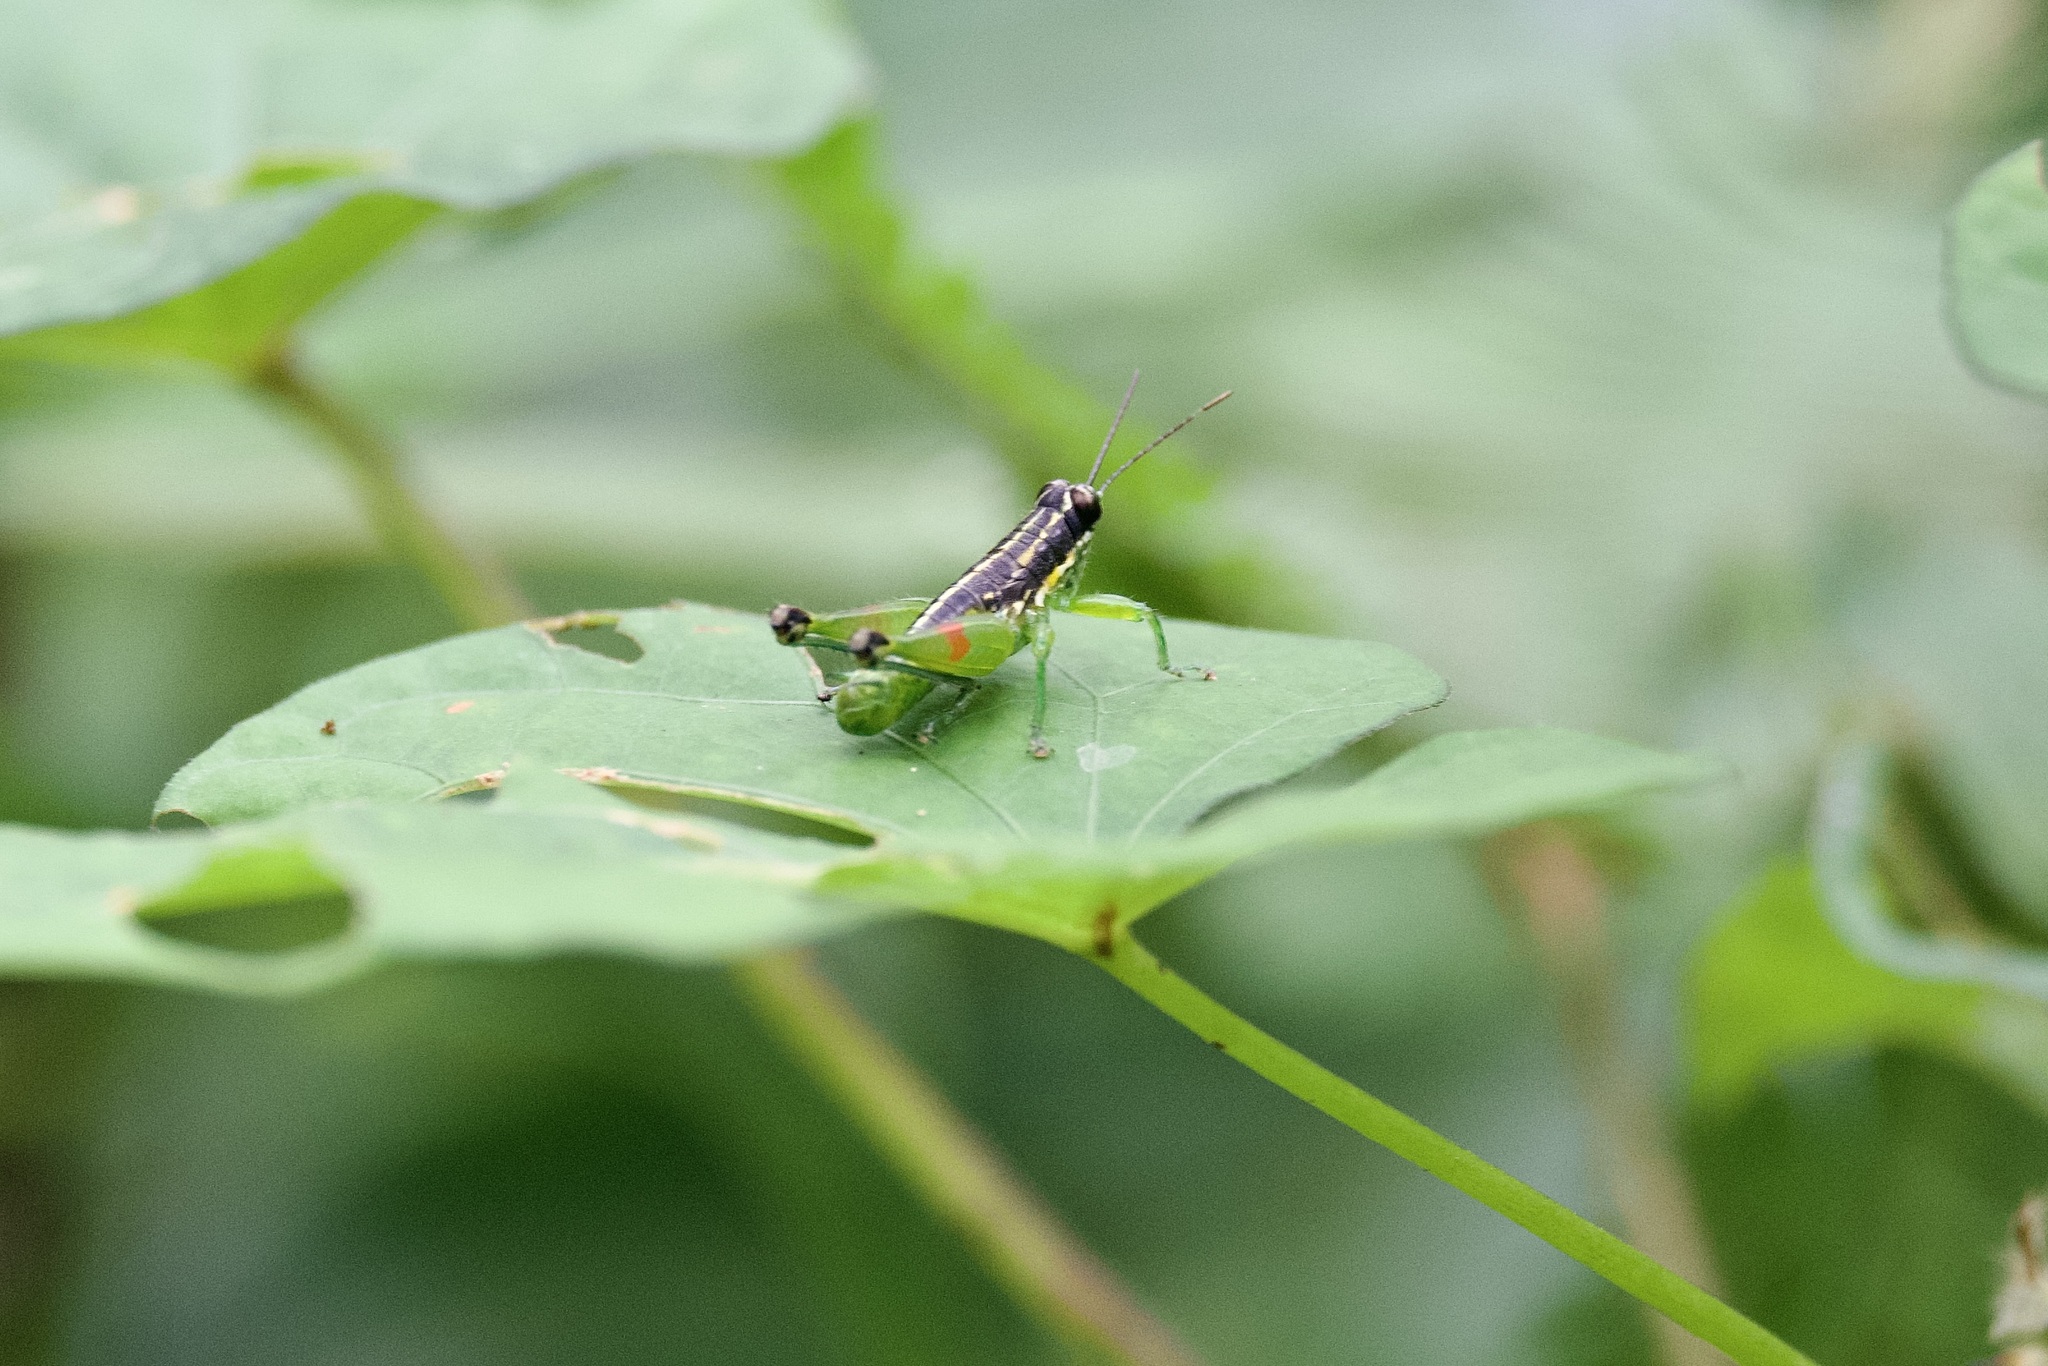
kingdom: Animalia
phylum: Arthropoda
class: Insecta
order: Orthoptera
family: Acrididae
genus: Liebermannacris
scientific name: Liebermannacris dorsualis
